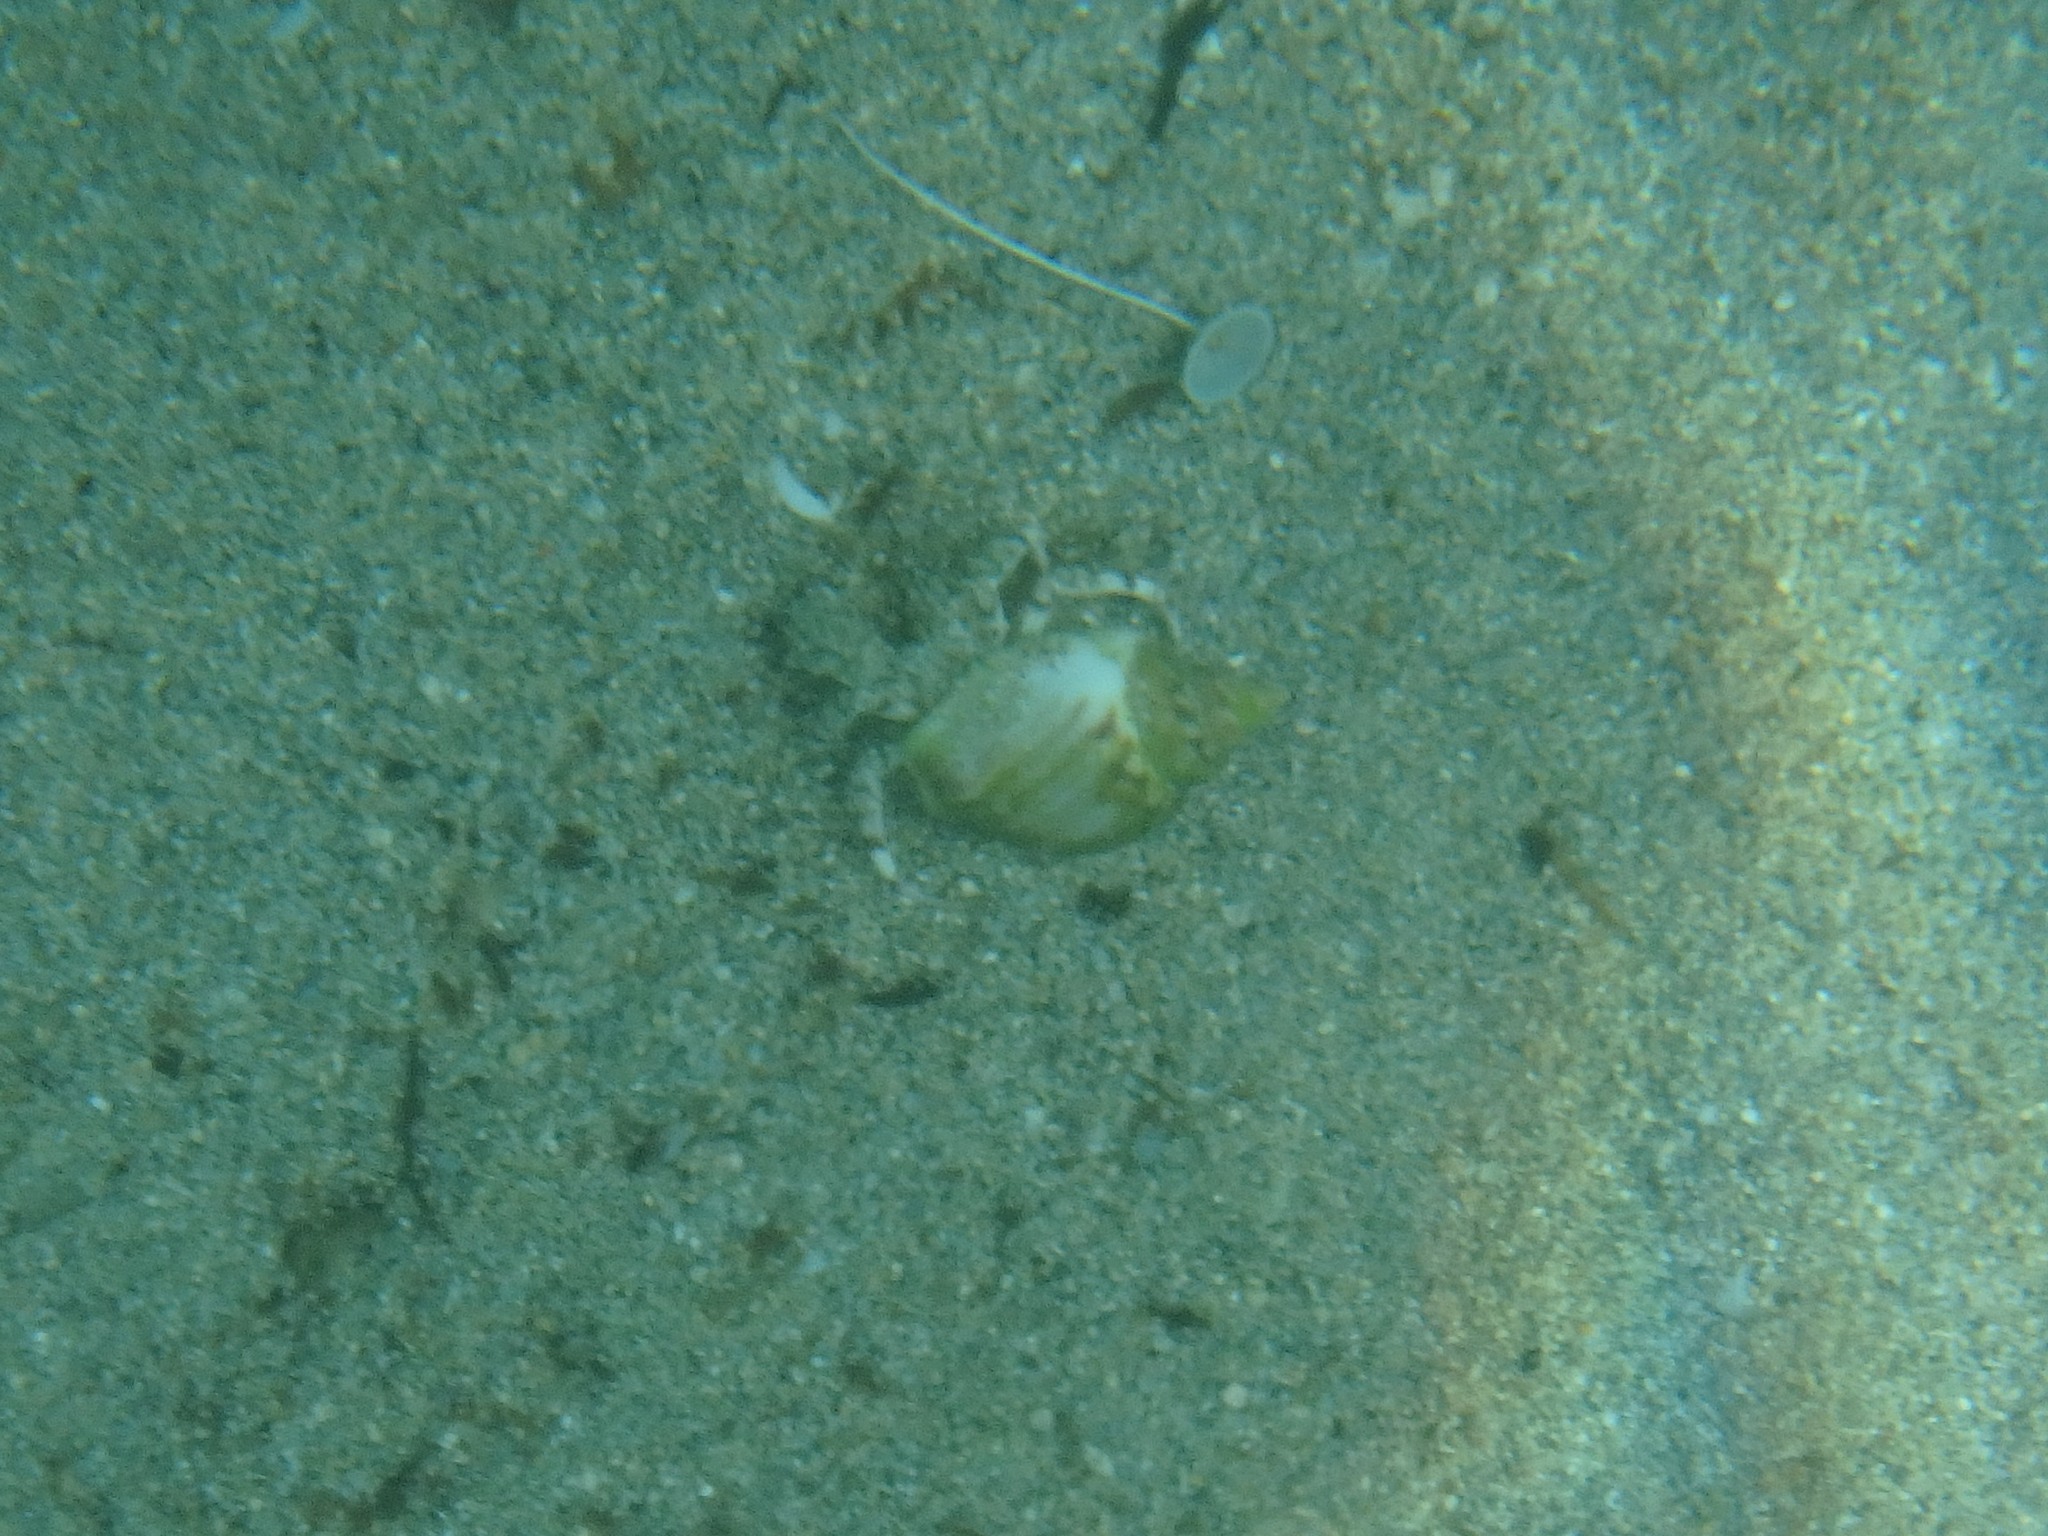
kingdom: Animalia
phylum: Arthropoda
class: Malacostraca
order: Decapoda
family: Diogenidae
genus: Diogenes
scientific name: Diogenes pugilator
